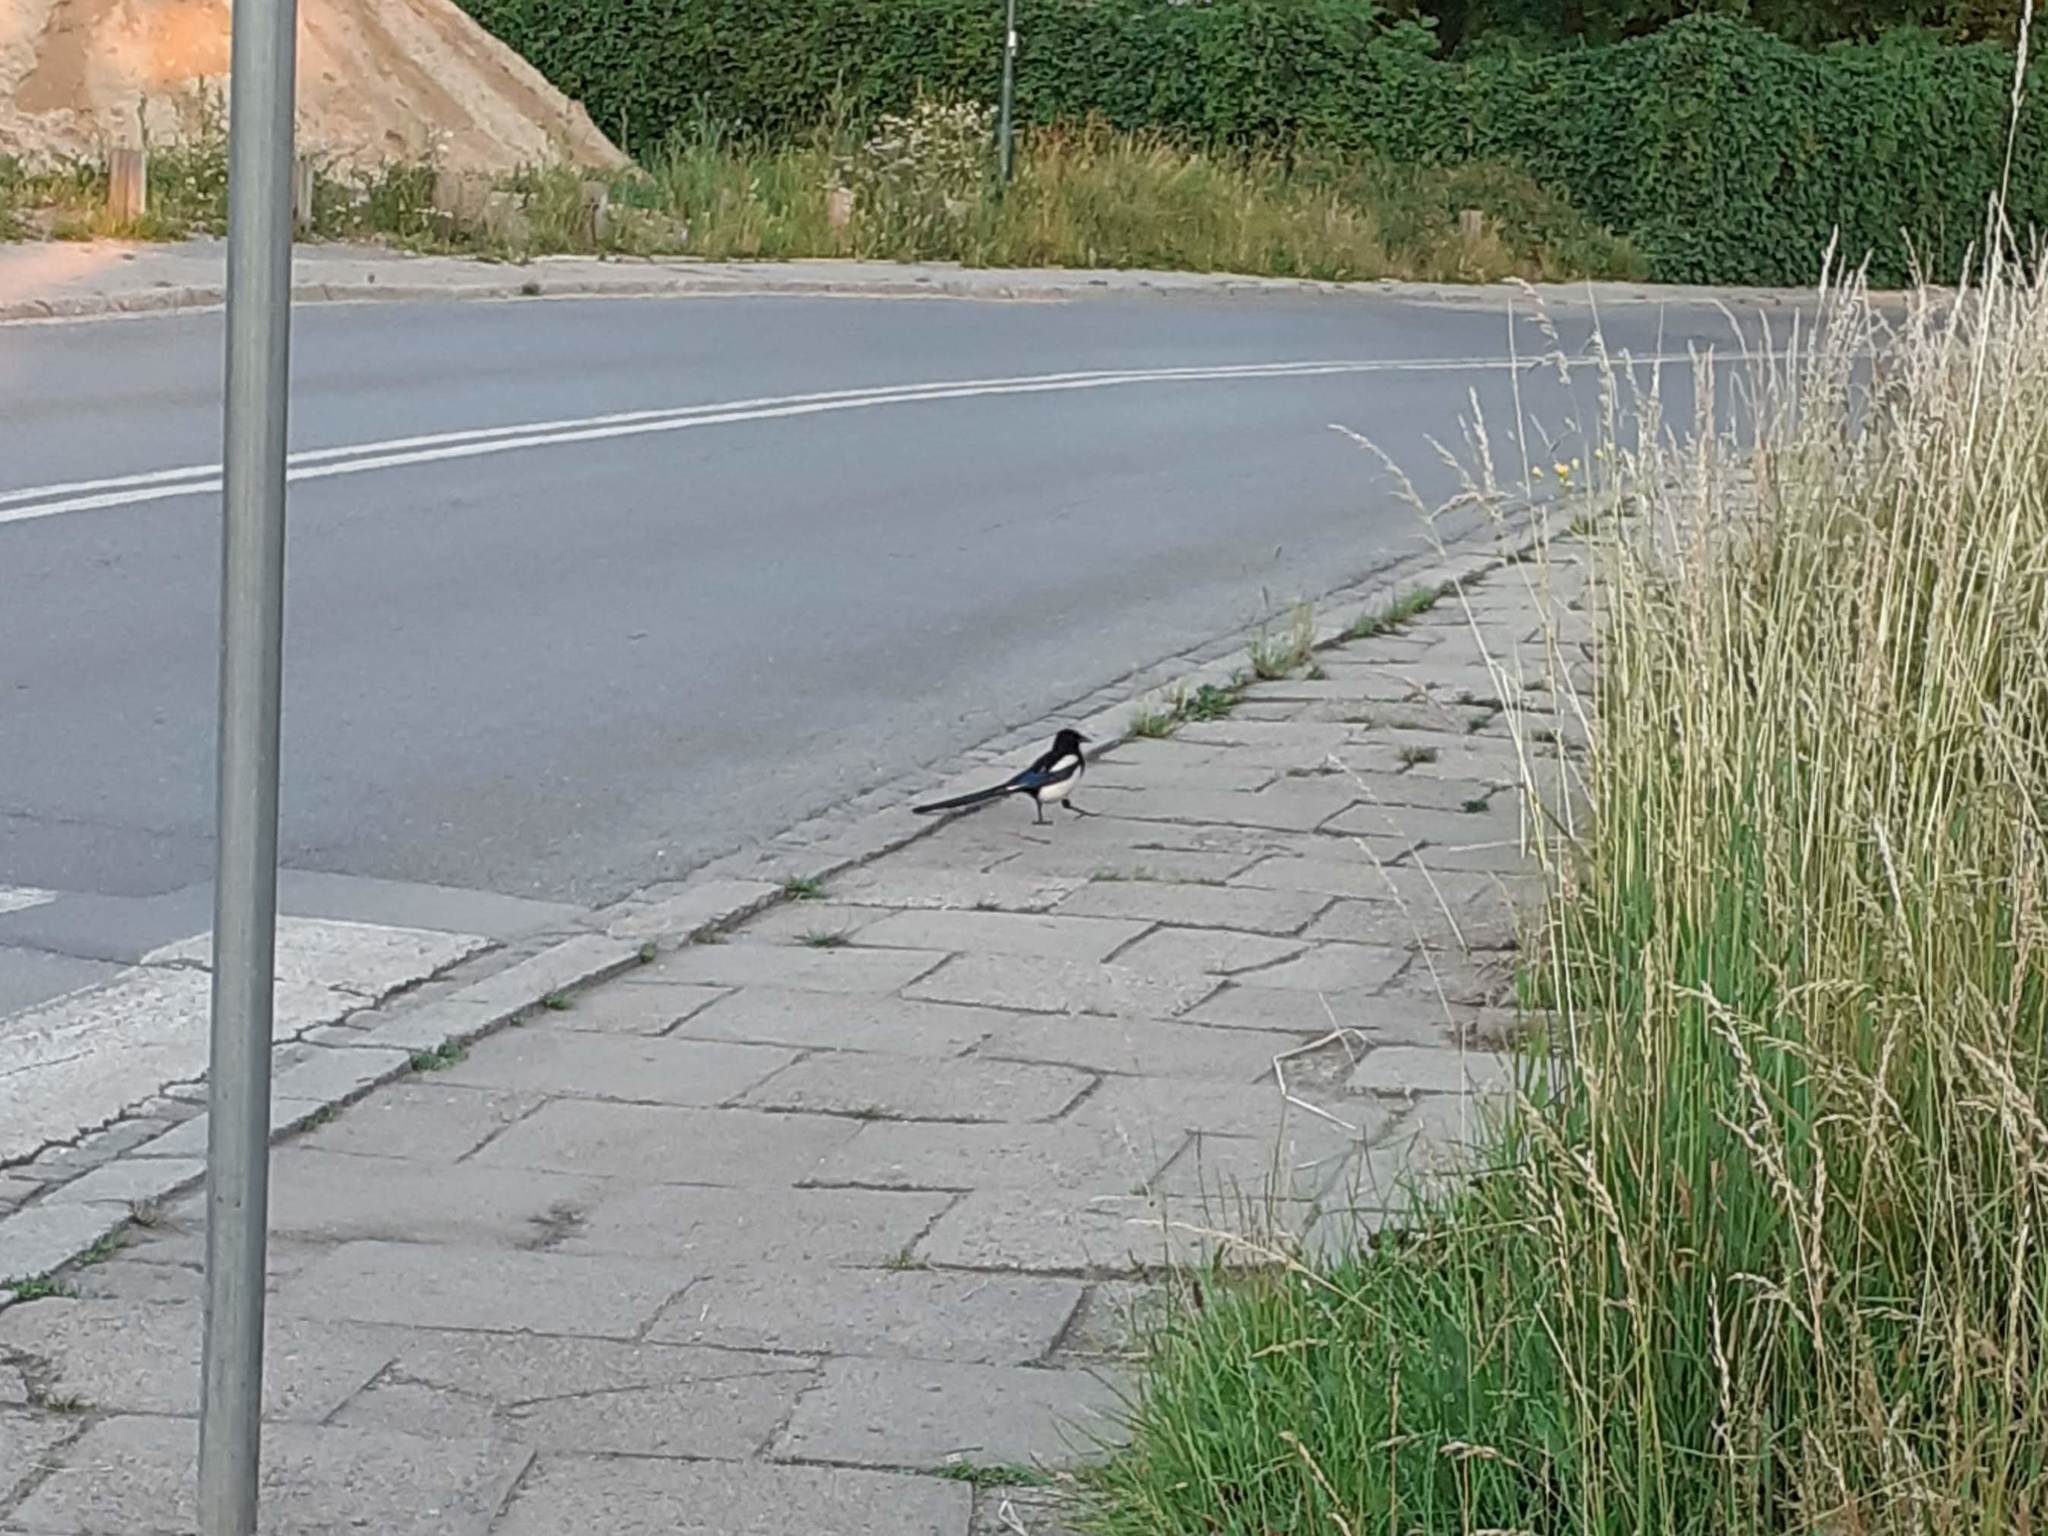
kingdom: Animalia
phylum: Chordata
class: Aves
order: Passeriformes
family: Corvidae
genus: Pica
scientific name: Pica pica
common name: Eurasian magpie
